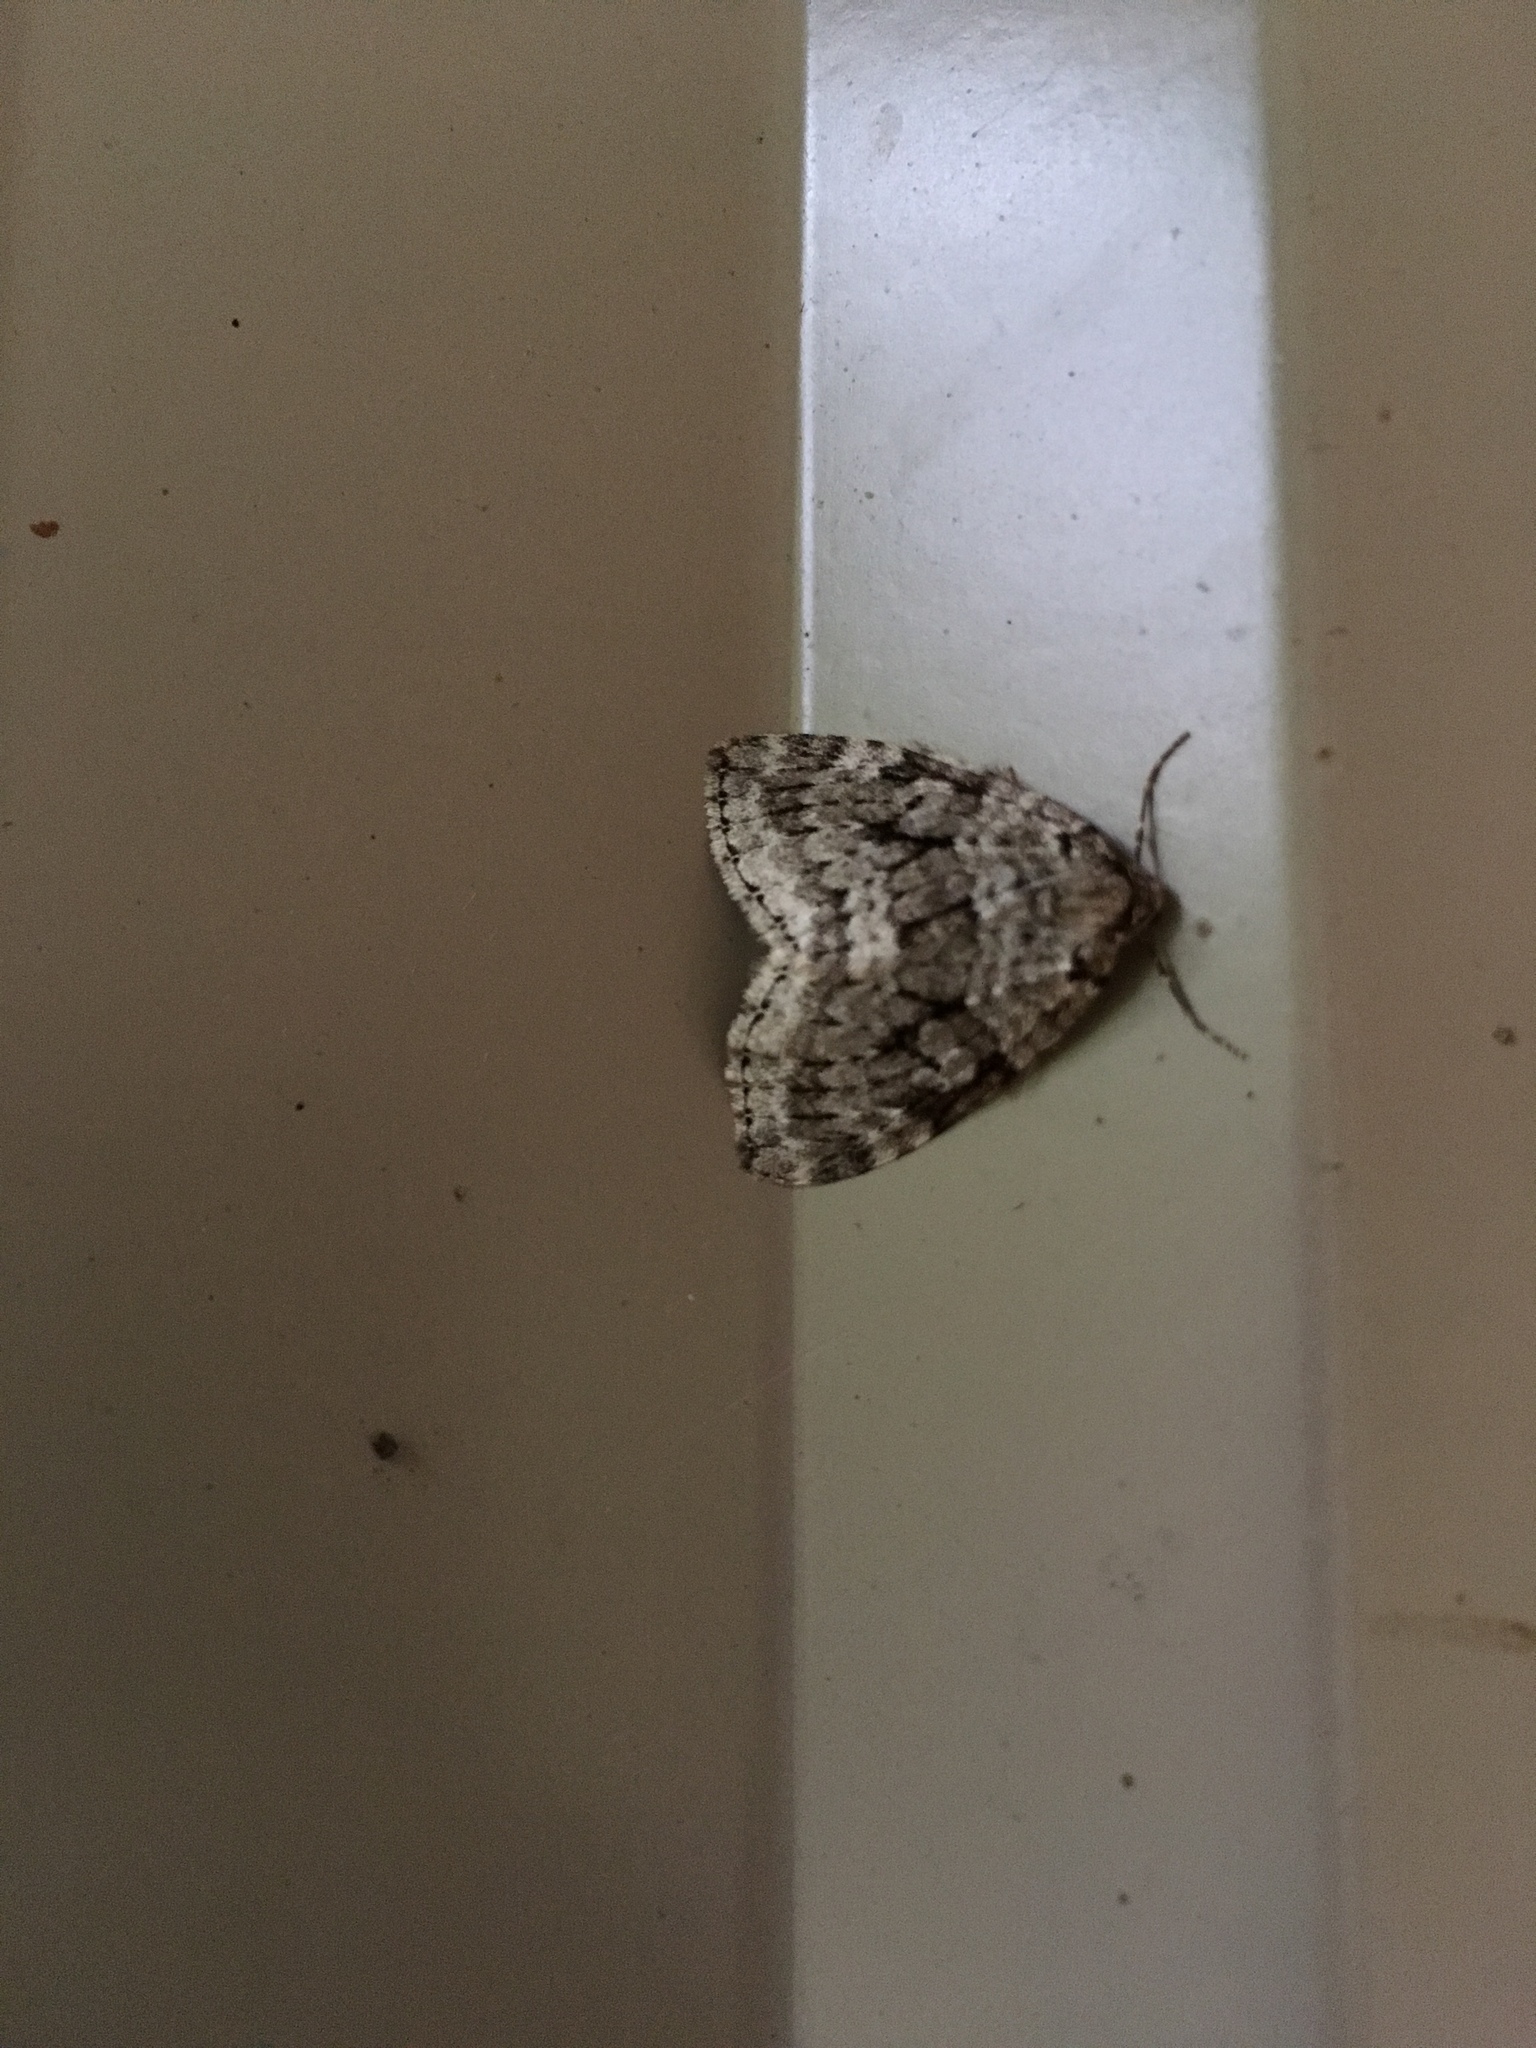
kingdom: Animalia
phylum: Arthropoda
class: Insecta
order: Lepidoptera
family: Geometridae
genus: Epirrita
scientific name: Epirrita autumnata
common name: Autumnal moth
